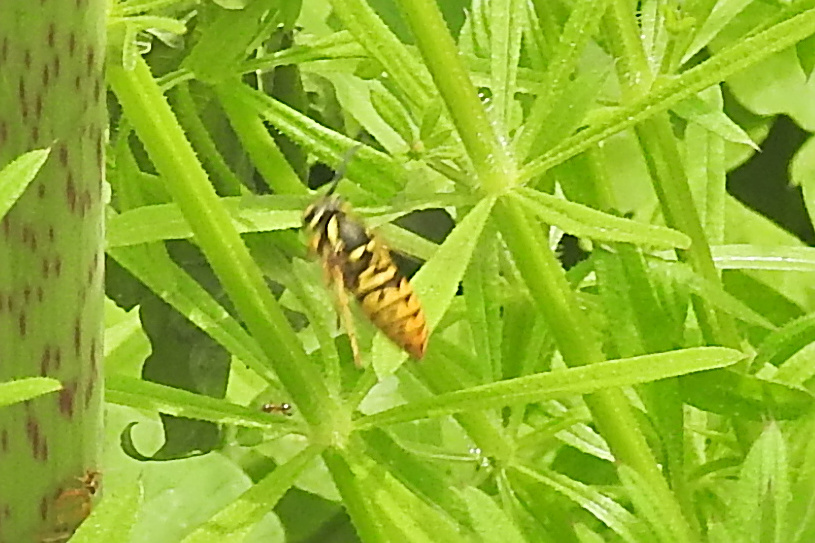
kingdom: Animalia
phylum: Arthropoda
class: Insecta
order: Hymenoptera
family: Vespidae
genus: Vespula
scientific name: Vespula maculifrons
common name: Eastern yellowjacket
